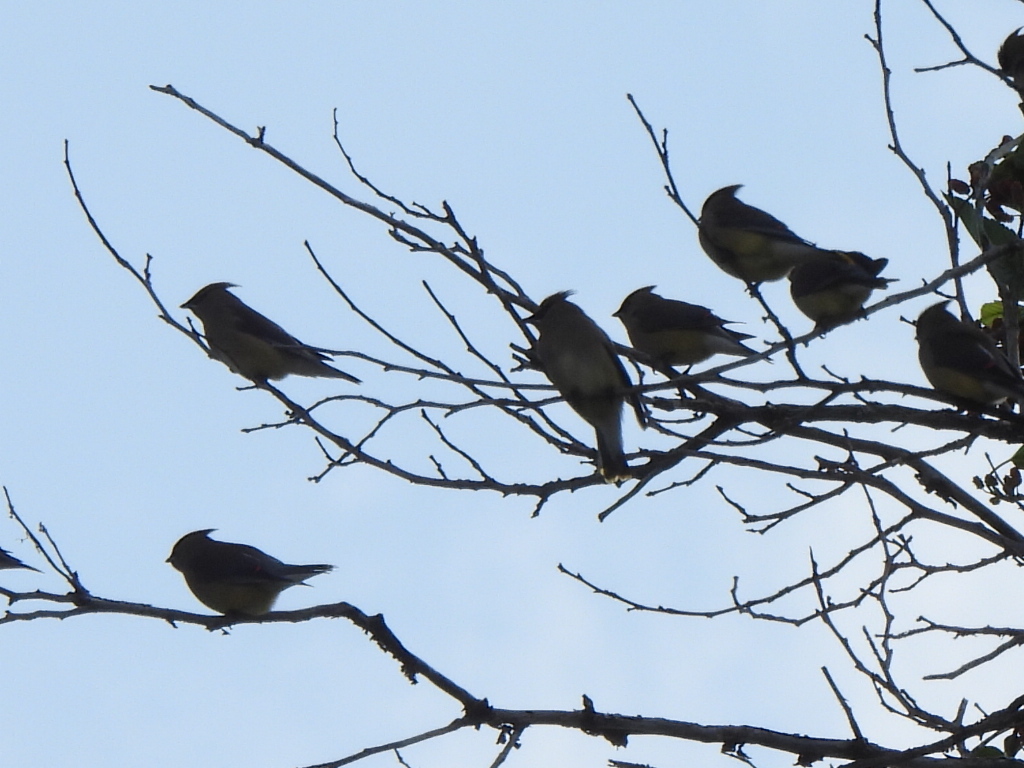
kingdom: Animalia
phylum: Chordata
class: Aves
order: Passeriformes
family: Bombycillidae
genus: Bombycilla
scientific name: Bombycilla cedrorum
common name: Cedar waxwing
